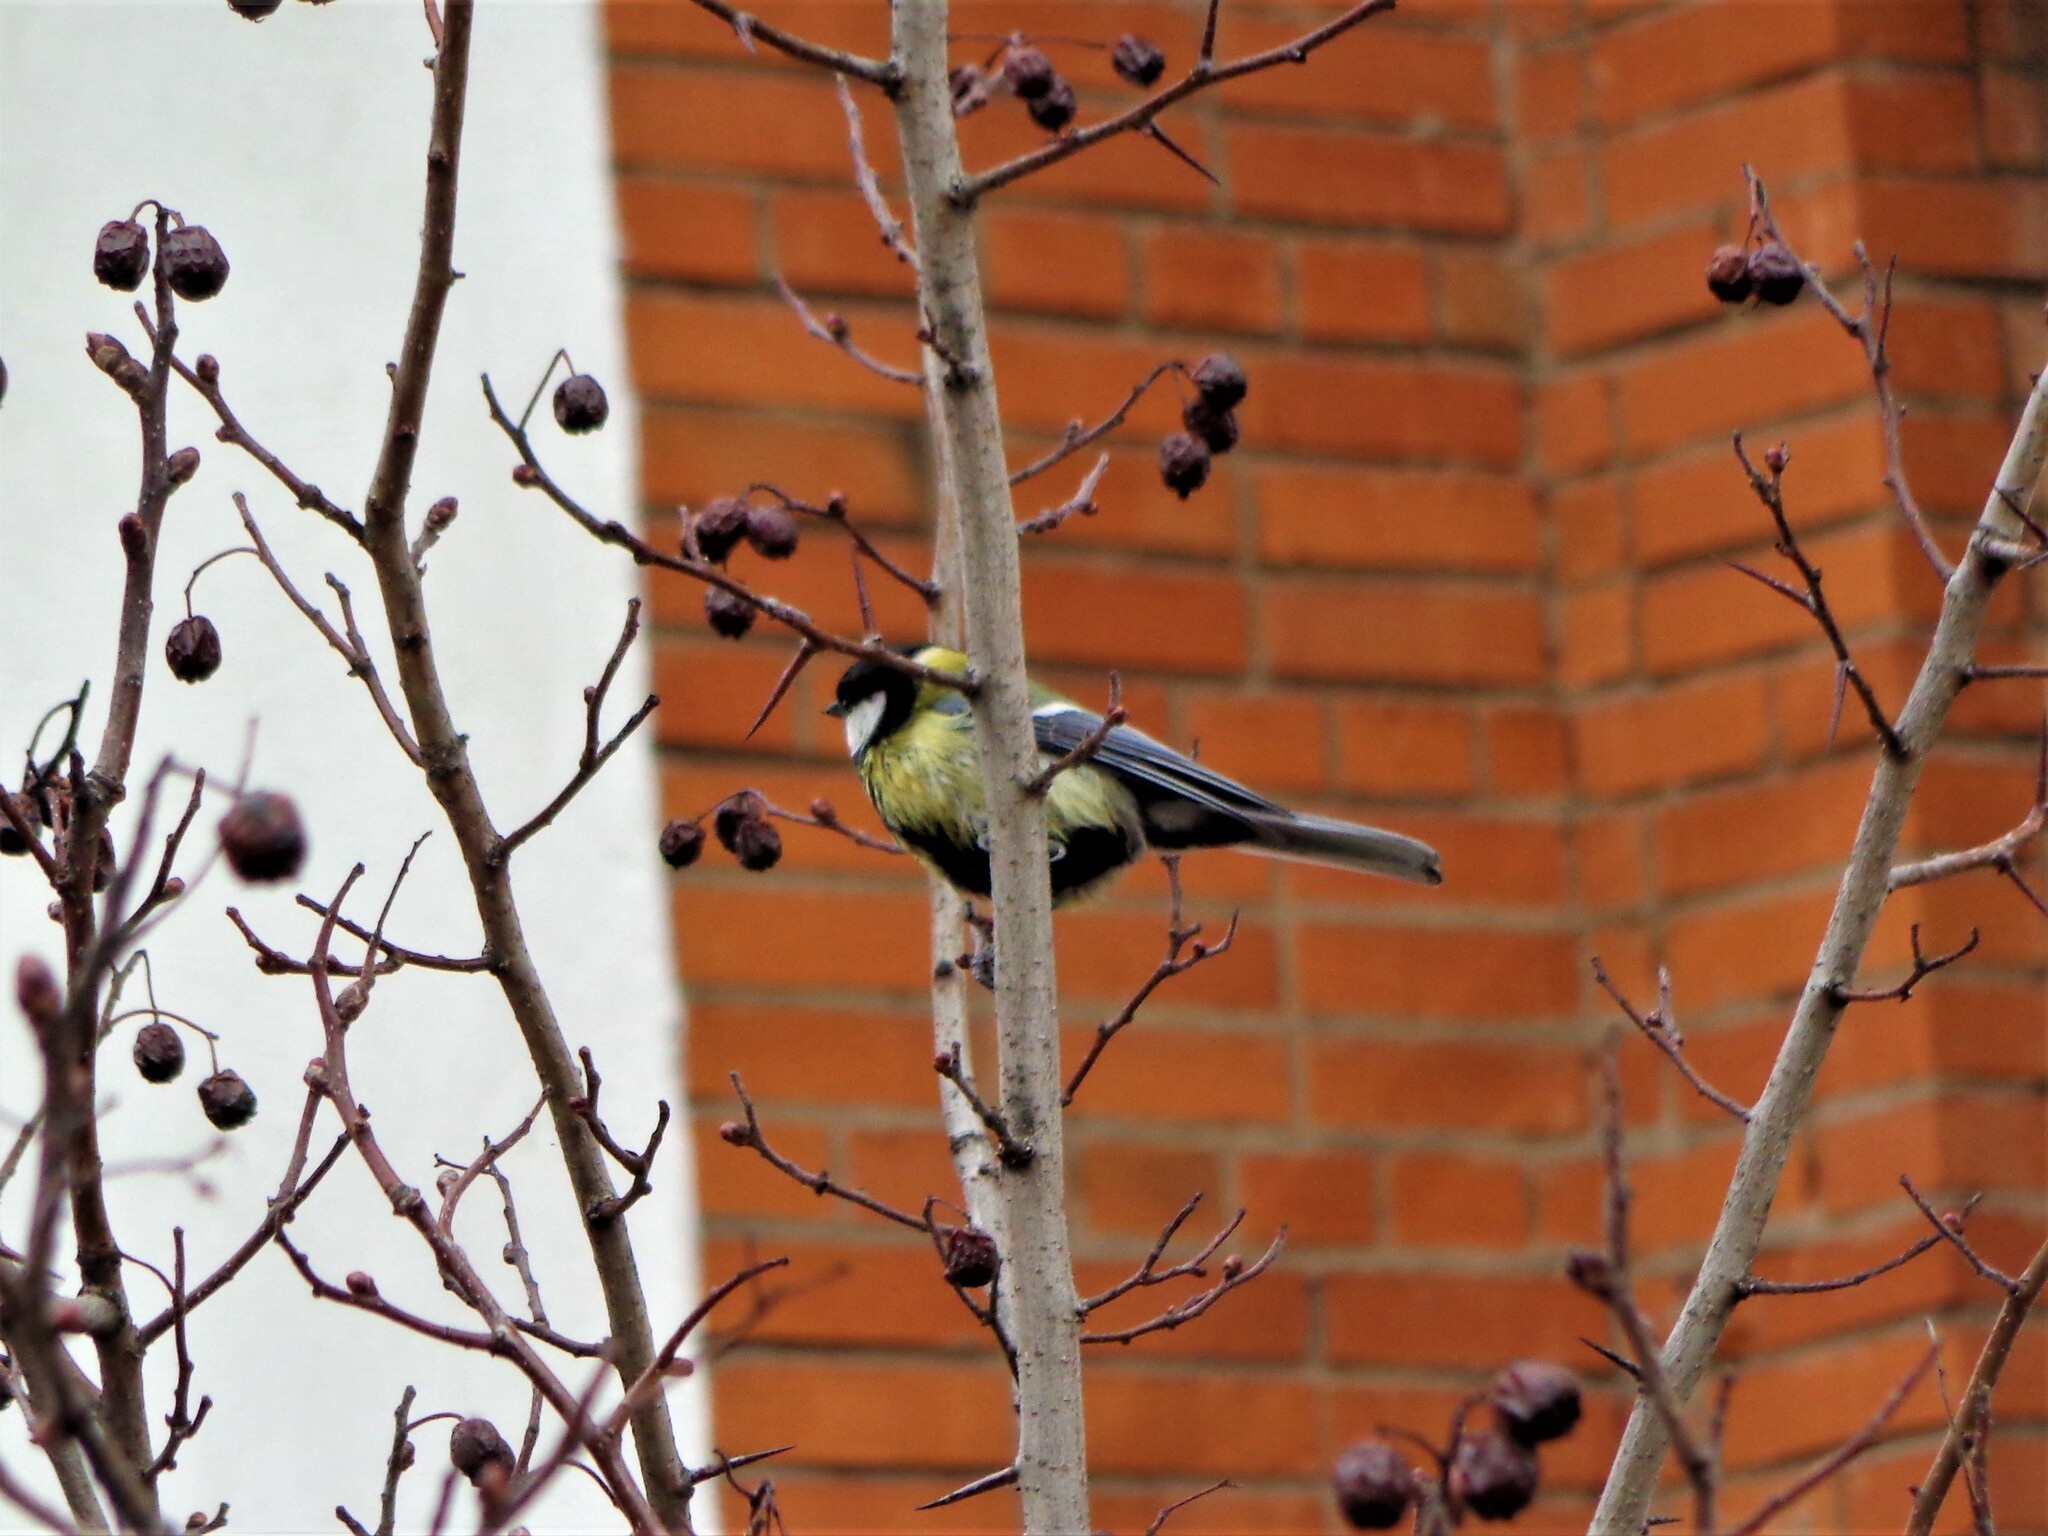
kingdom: Animalia
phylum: Chordata
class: Aves
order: Passeriformes
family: Paridae
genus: Parus
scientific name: Parus major
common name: Great tit
